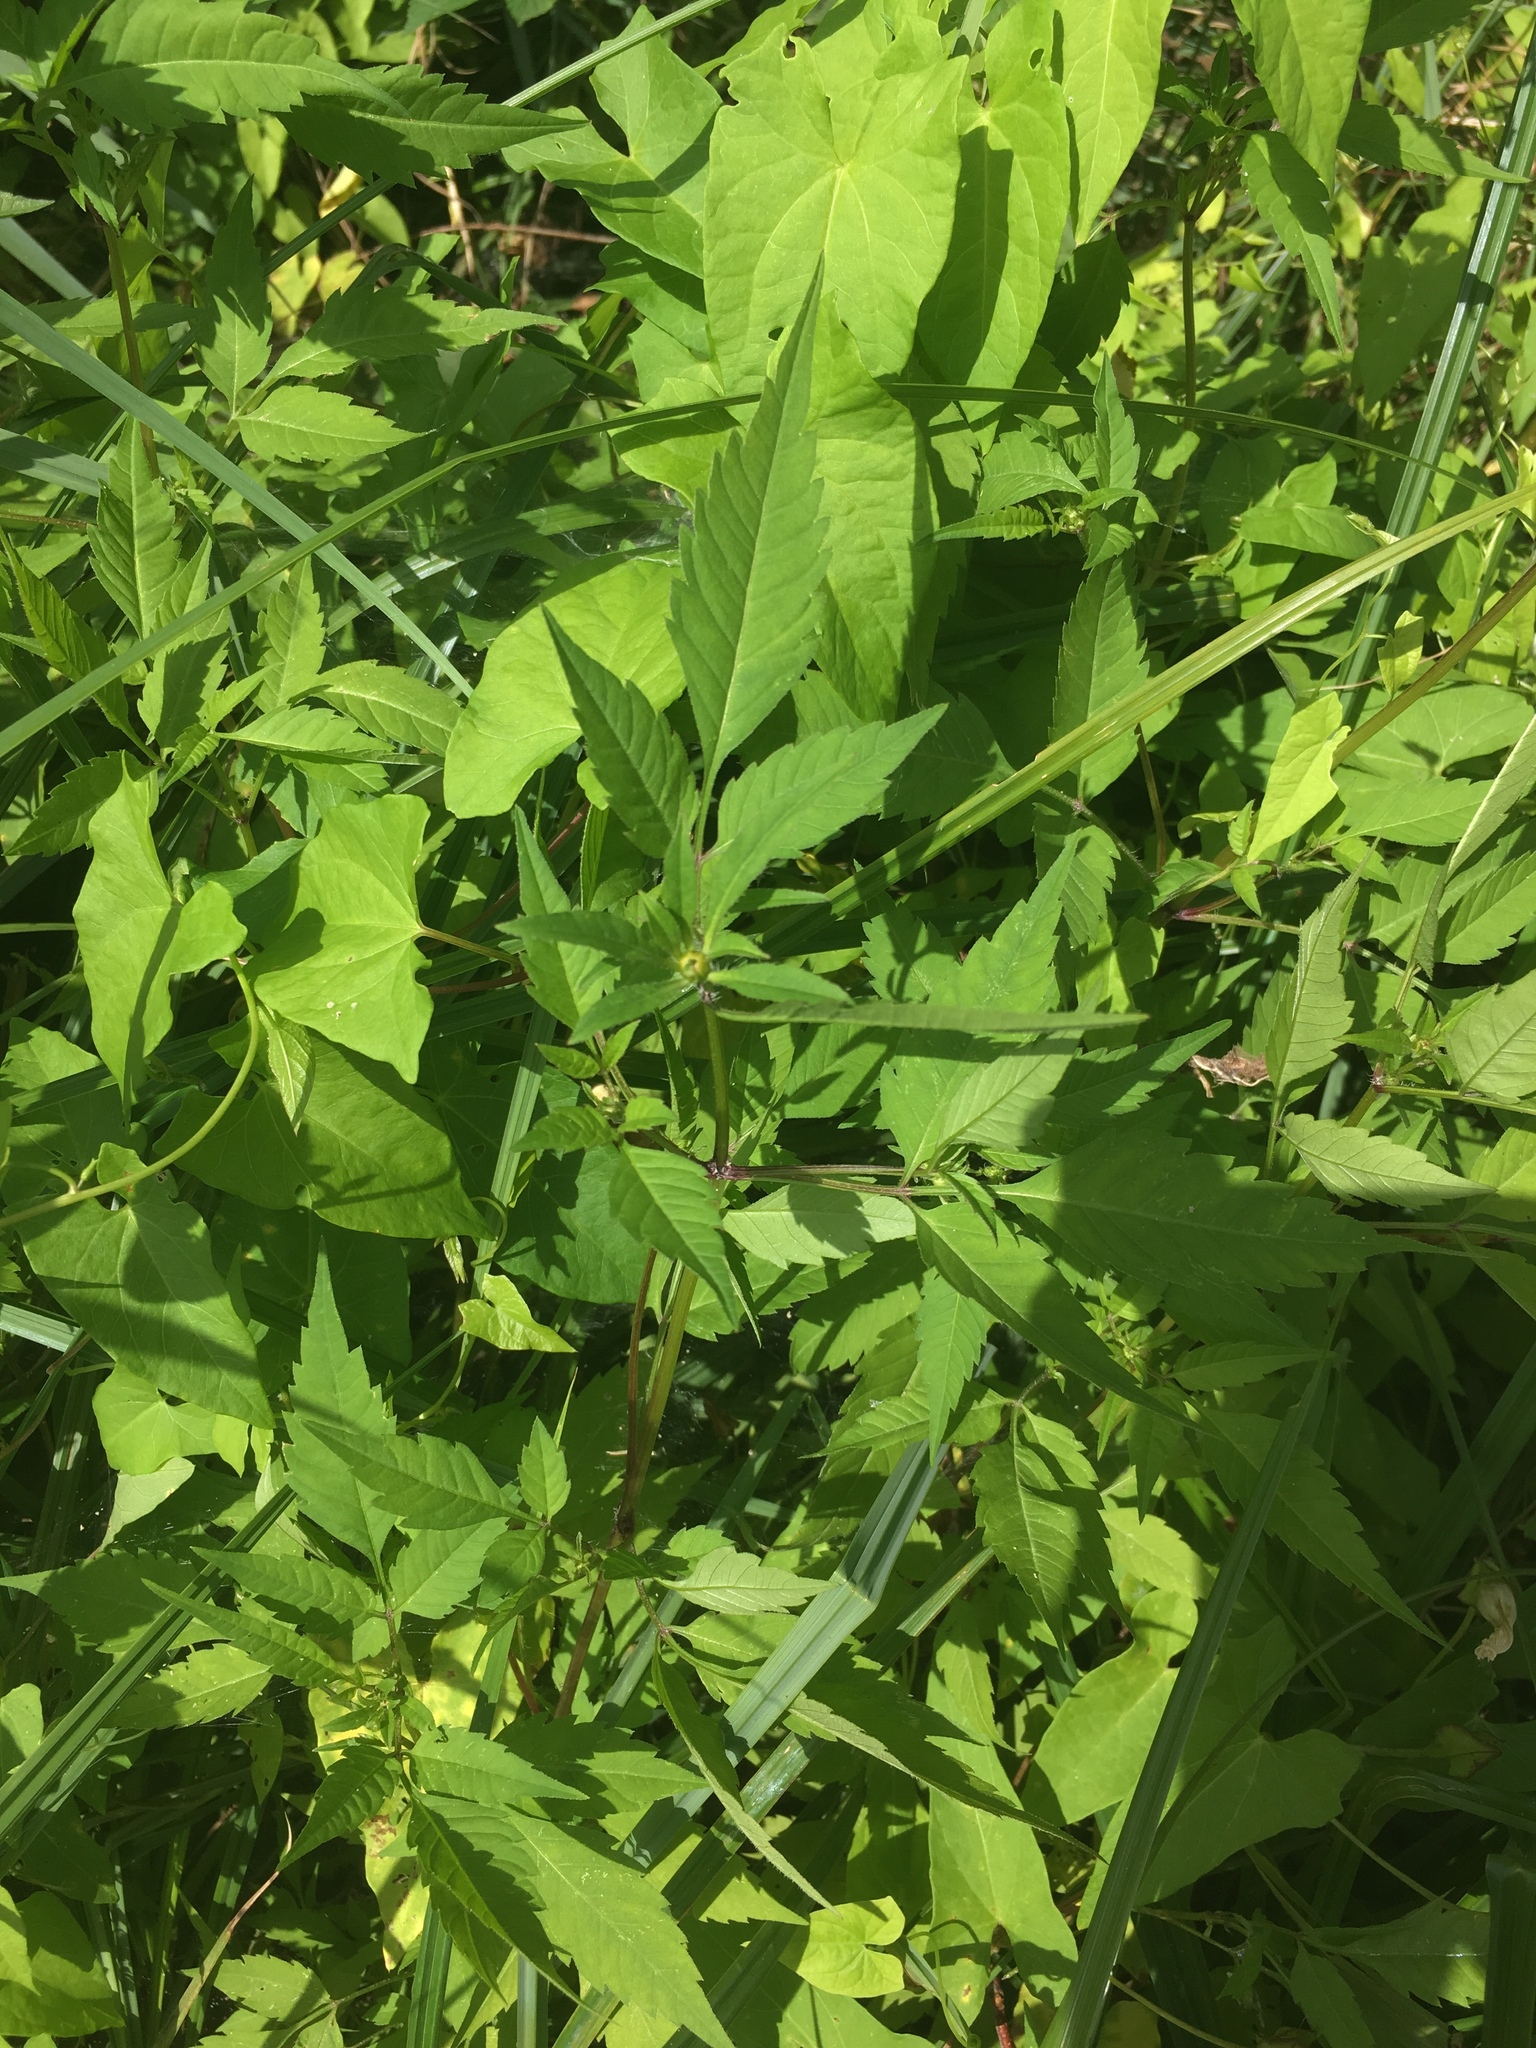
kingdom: Plantae
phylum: Tracheophyta
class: Magnoliopsida
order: Asterales
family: Asteraceae
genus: Bidens
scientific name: Bidens frondosa
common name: Beggarticks
